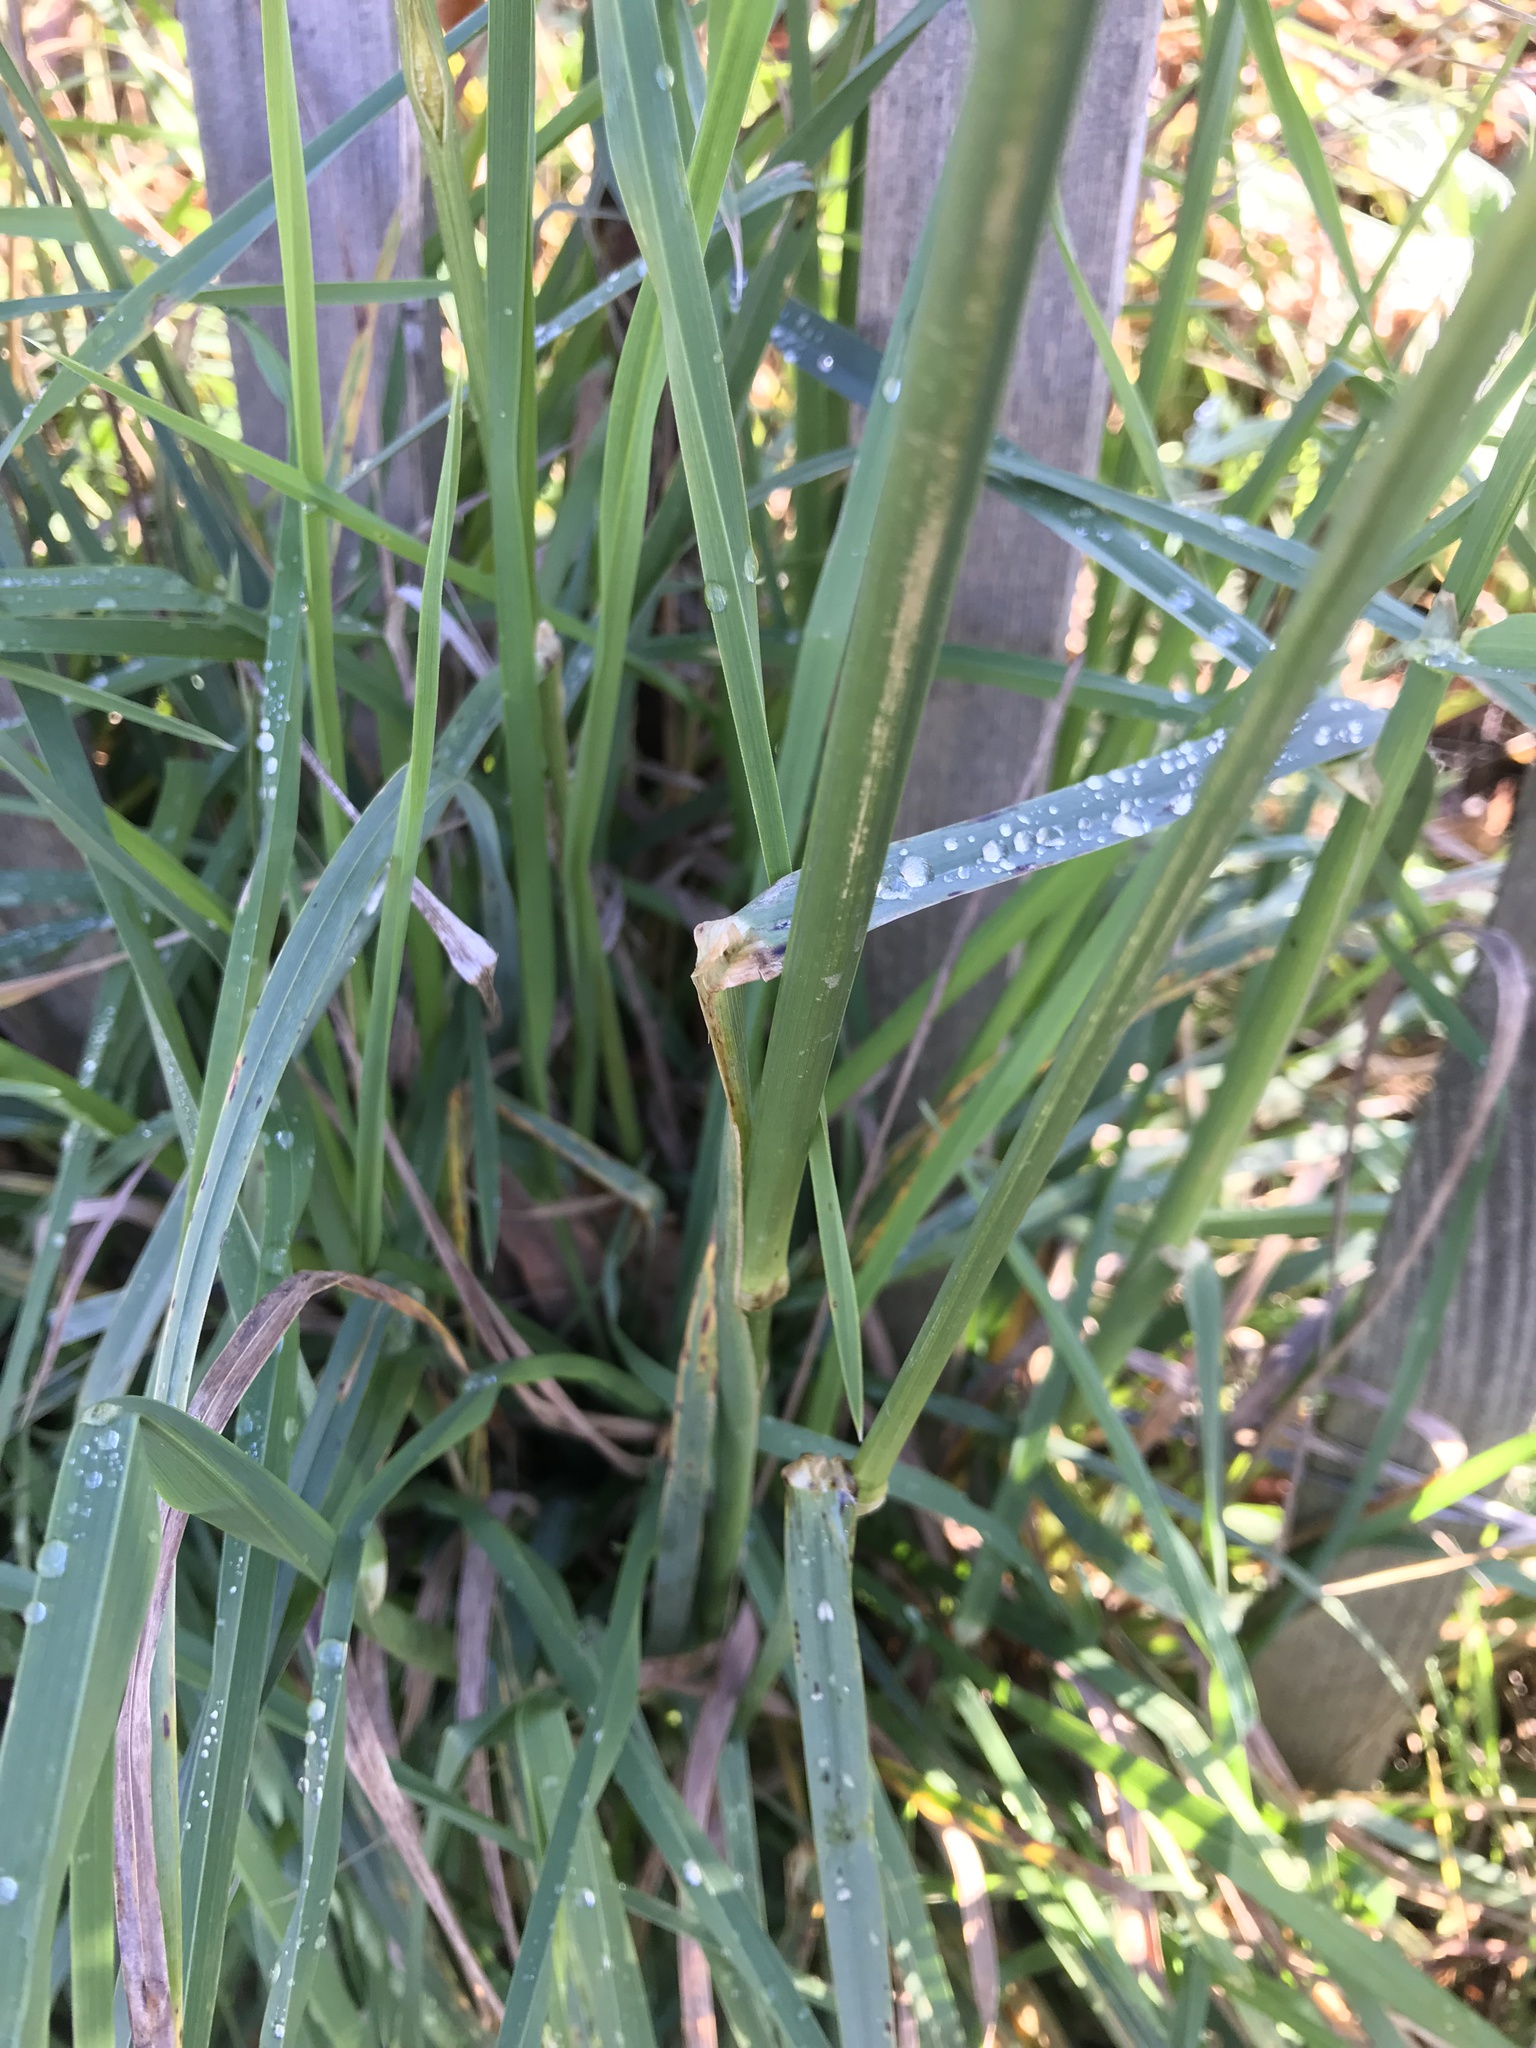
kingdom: Plantae
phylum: Tracheophyta
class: Liliopsida
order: Poales
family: Poaceae
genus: Dactylis
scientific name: Dactylis glomerata
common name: Orchardgrass
